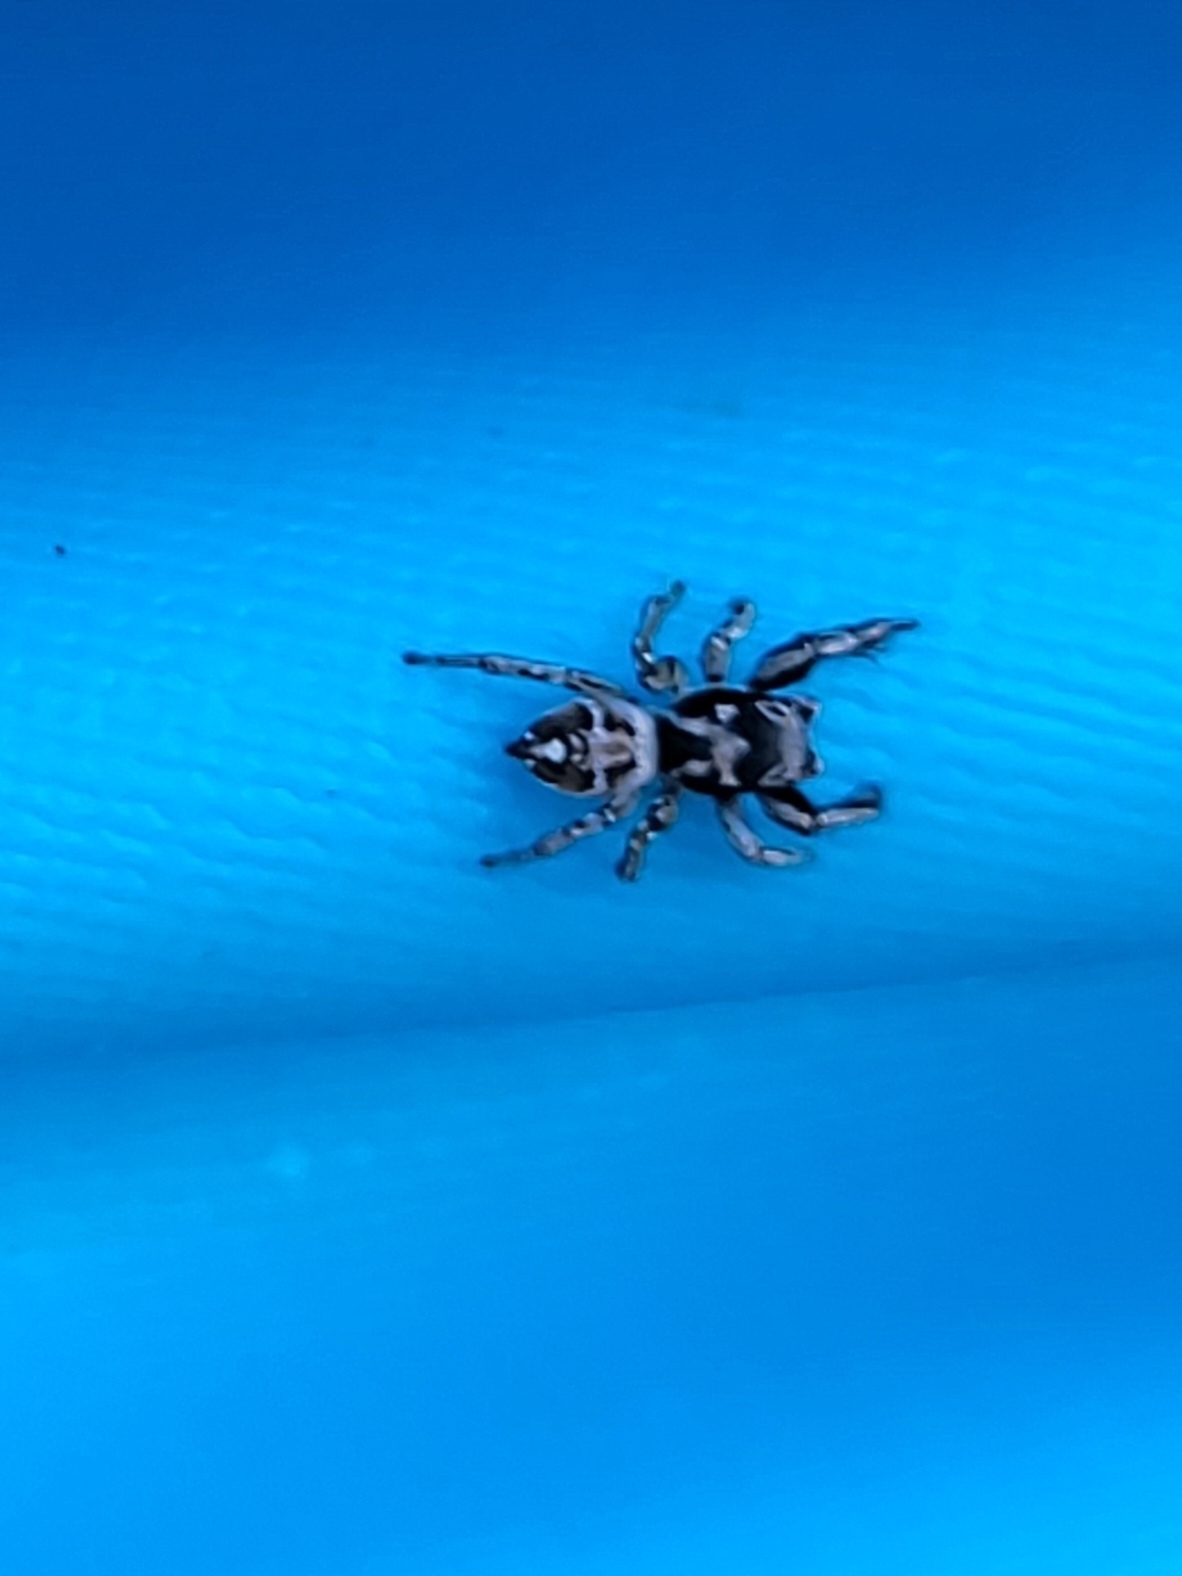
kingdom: Animalia
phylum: Arthropoda
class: Arachnida
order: Araneae
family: Salticidae
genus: Habronattus
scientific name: Habronattus coecatus
